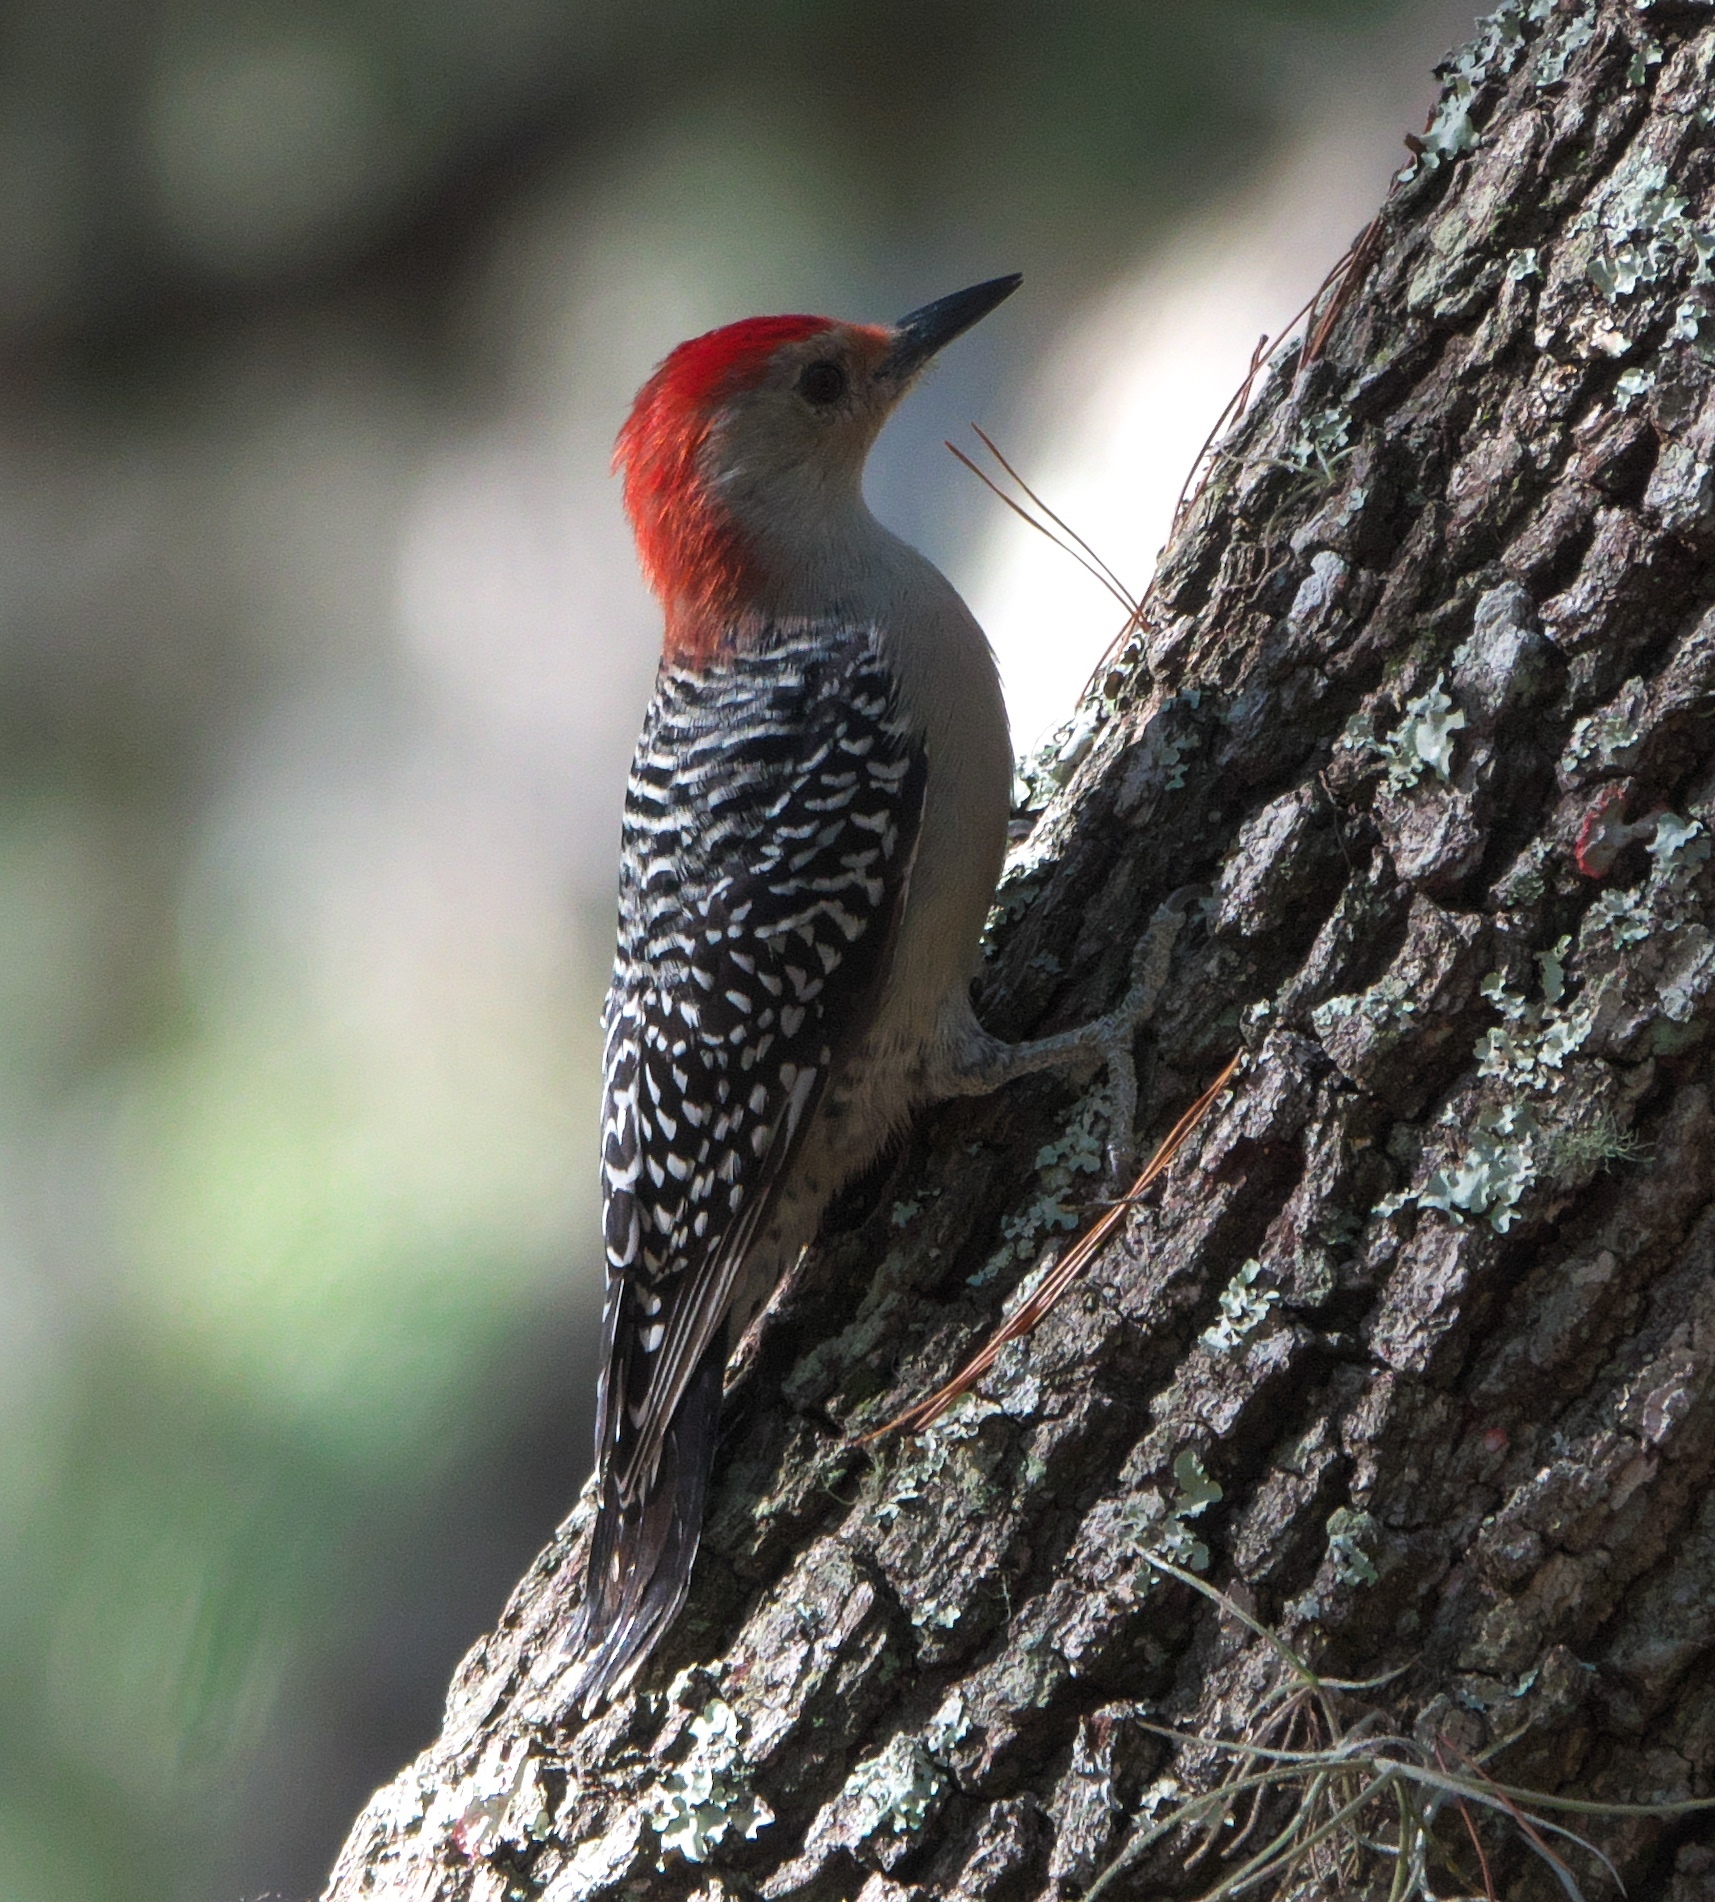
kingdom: Animalia
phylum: Chordata
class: Aves
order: Piciformes
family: Picidae
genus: Melanerpes
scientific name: Melanerpes carolinus
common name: Red-bellied woodpecker
